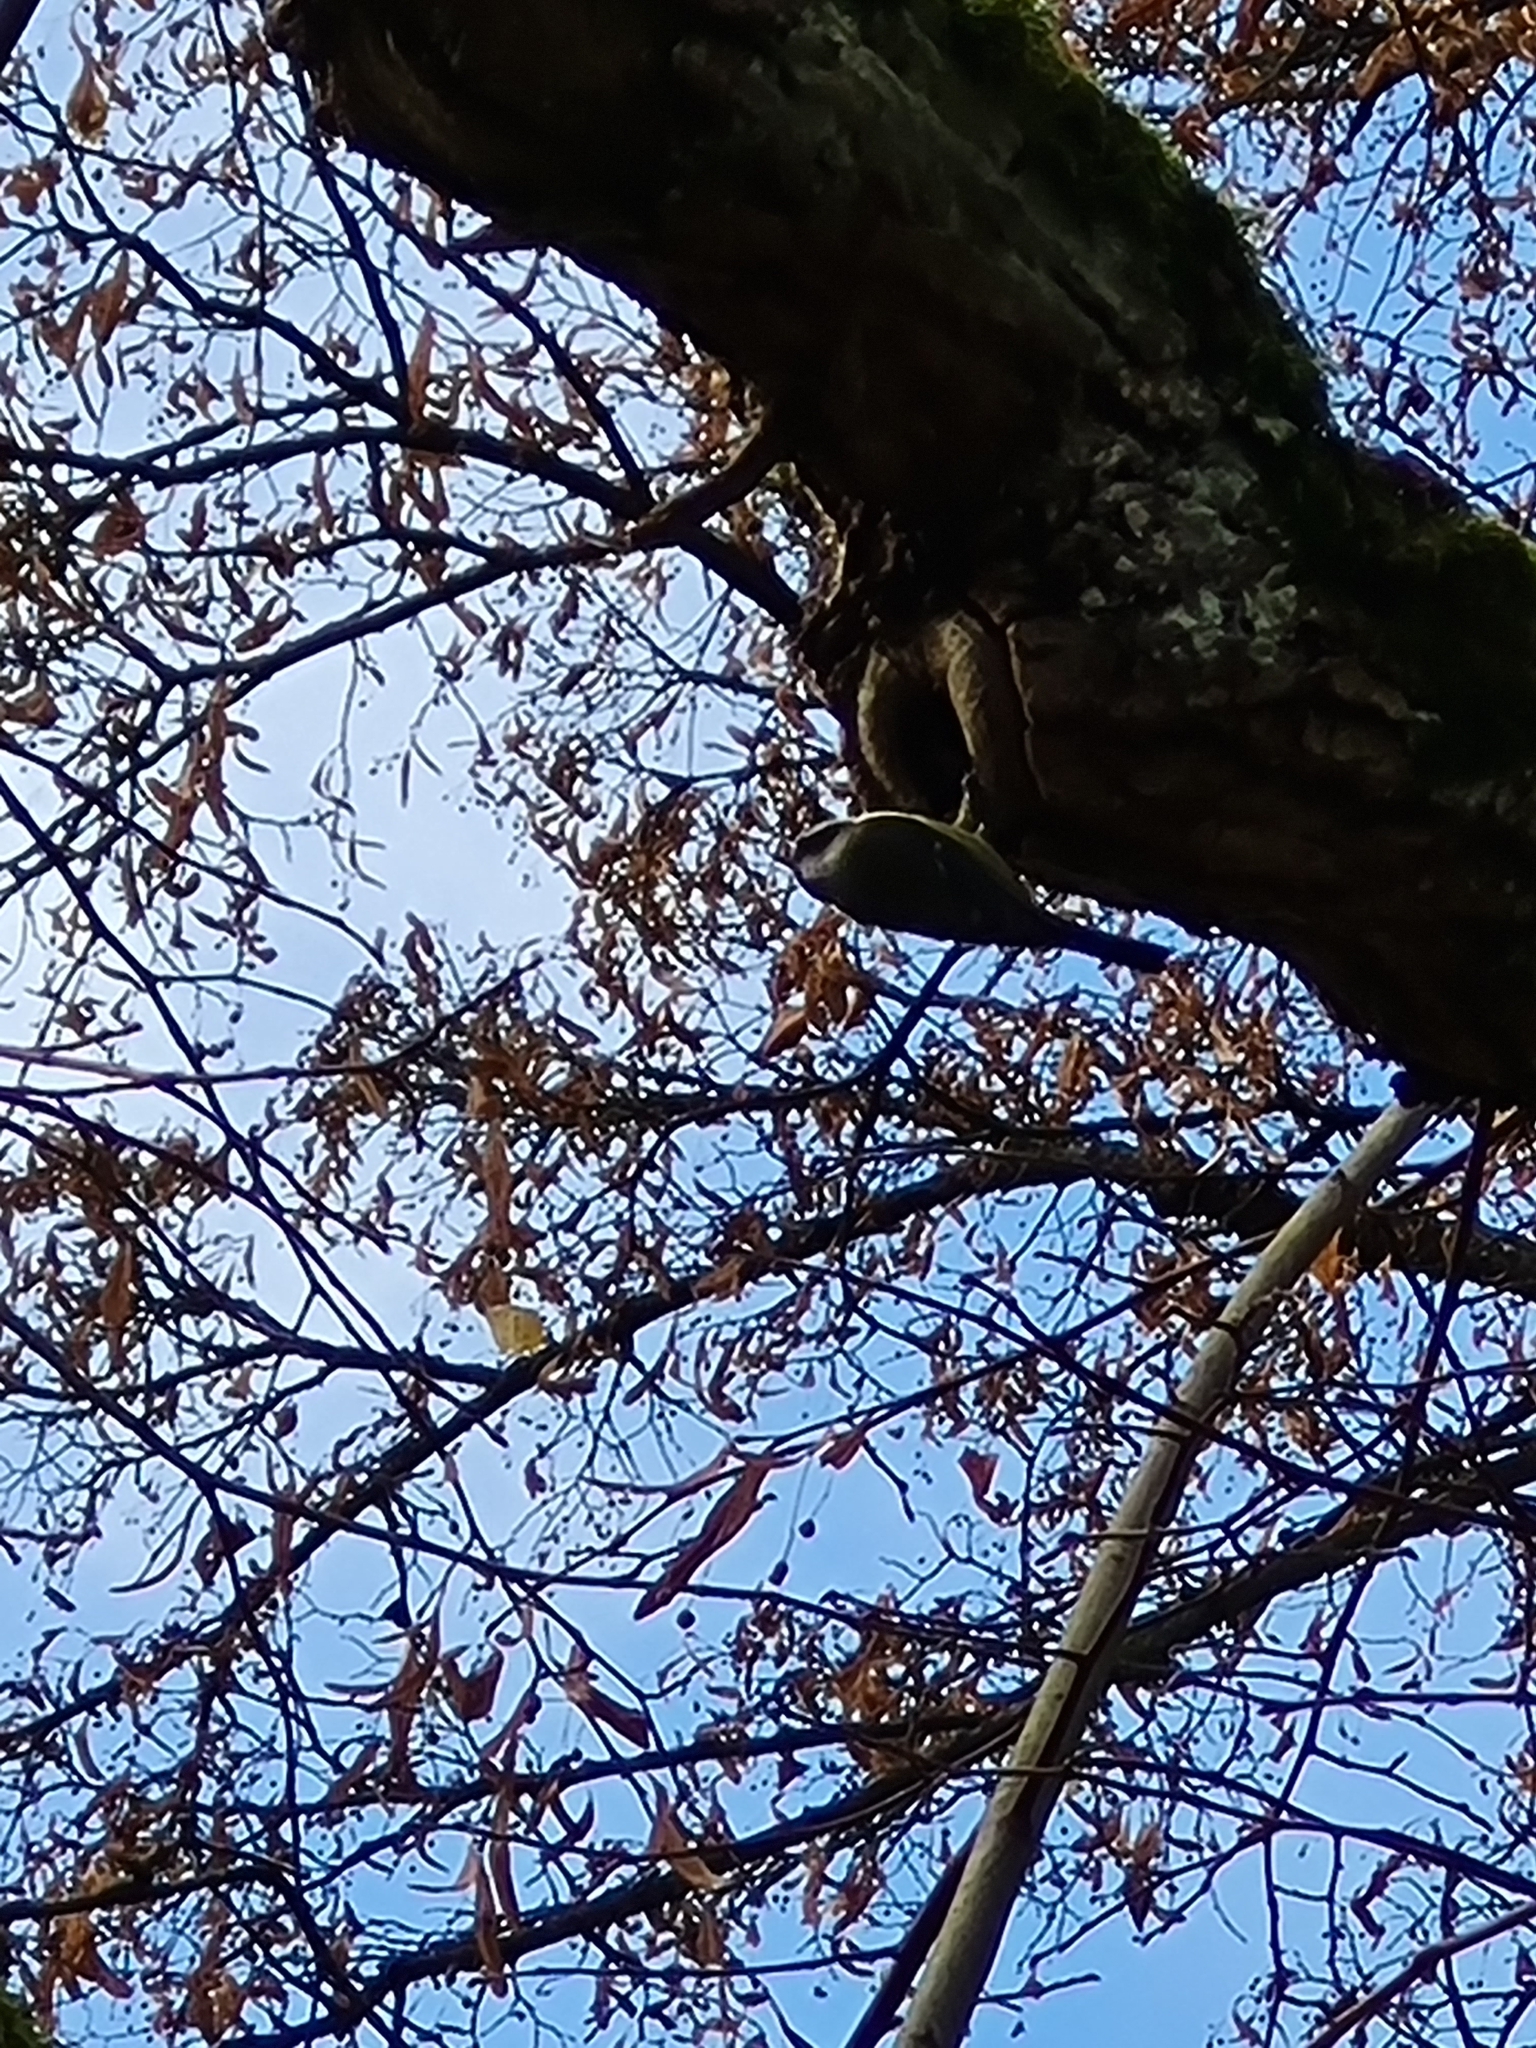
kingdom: Animalia
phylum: Chordata
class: Aves
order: Passeriformes
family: Paridae
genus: Parus
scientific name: Parus major
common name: Great tit
